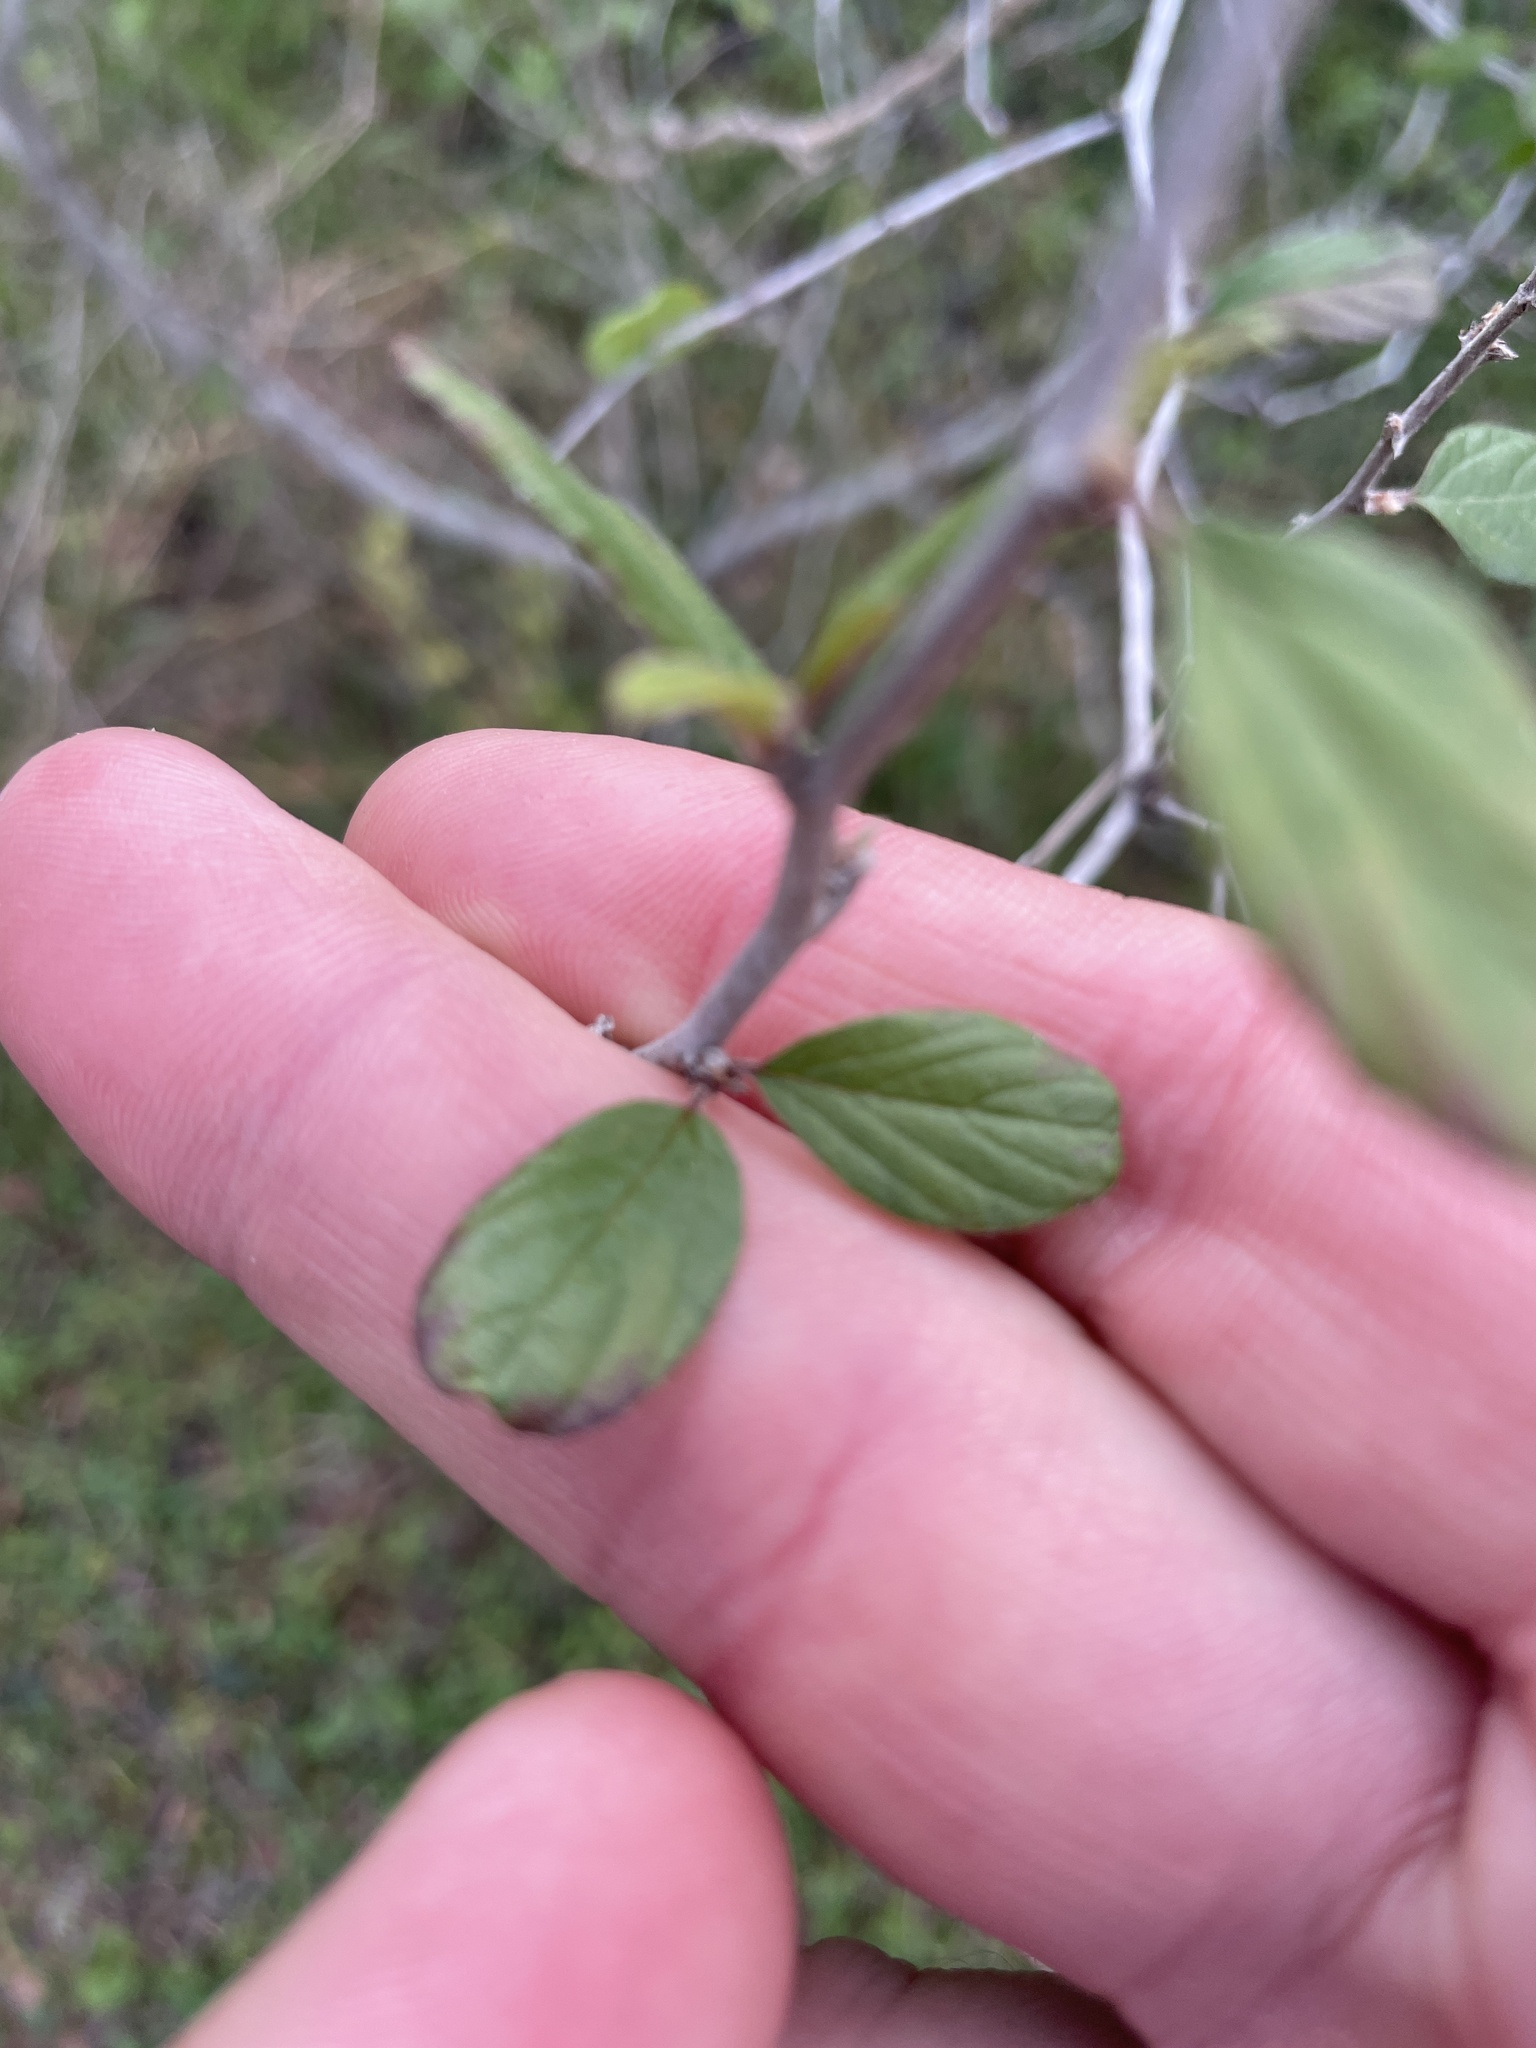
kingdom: Plantae
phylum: Tracheophyta
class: Magnoliopsida
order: Rosales
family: Rhamnaceae
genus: Colubrina
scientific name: Colubrina texensis
